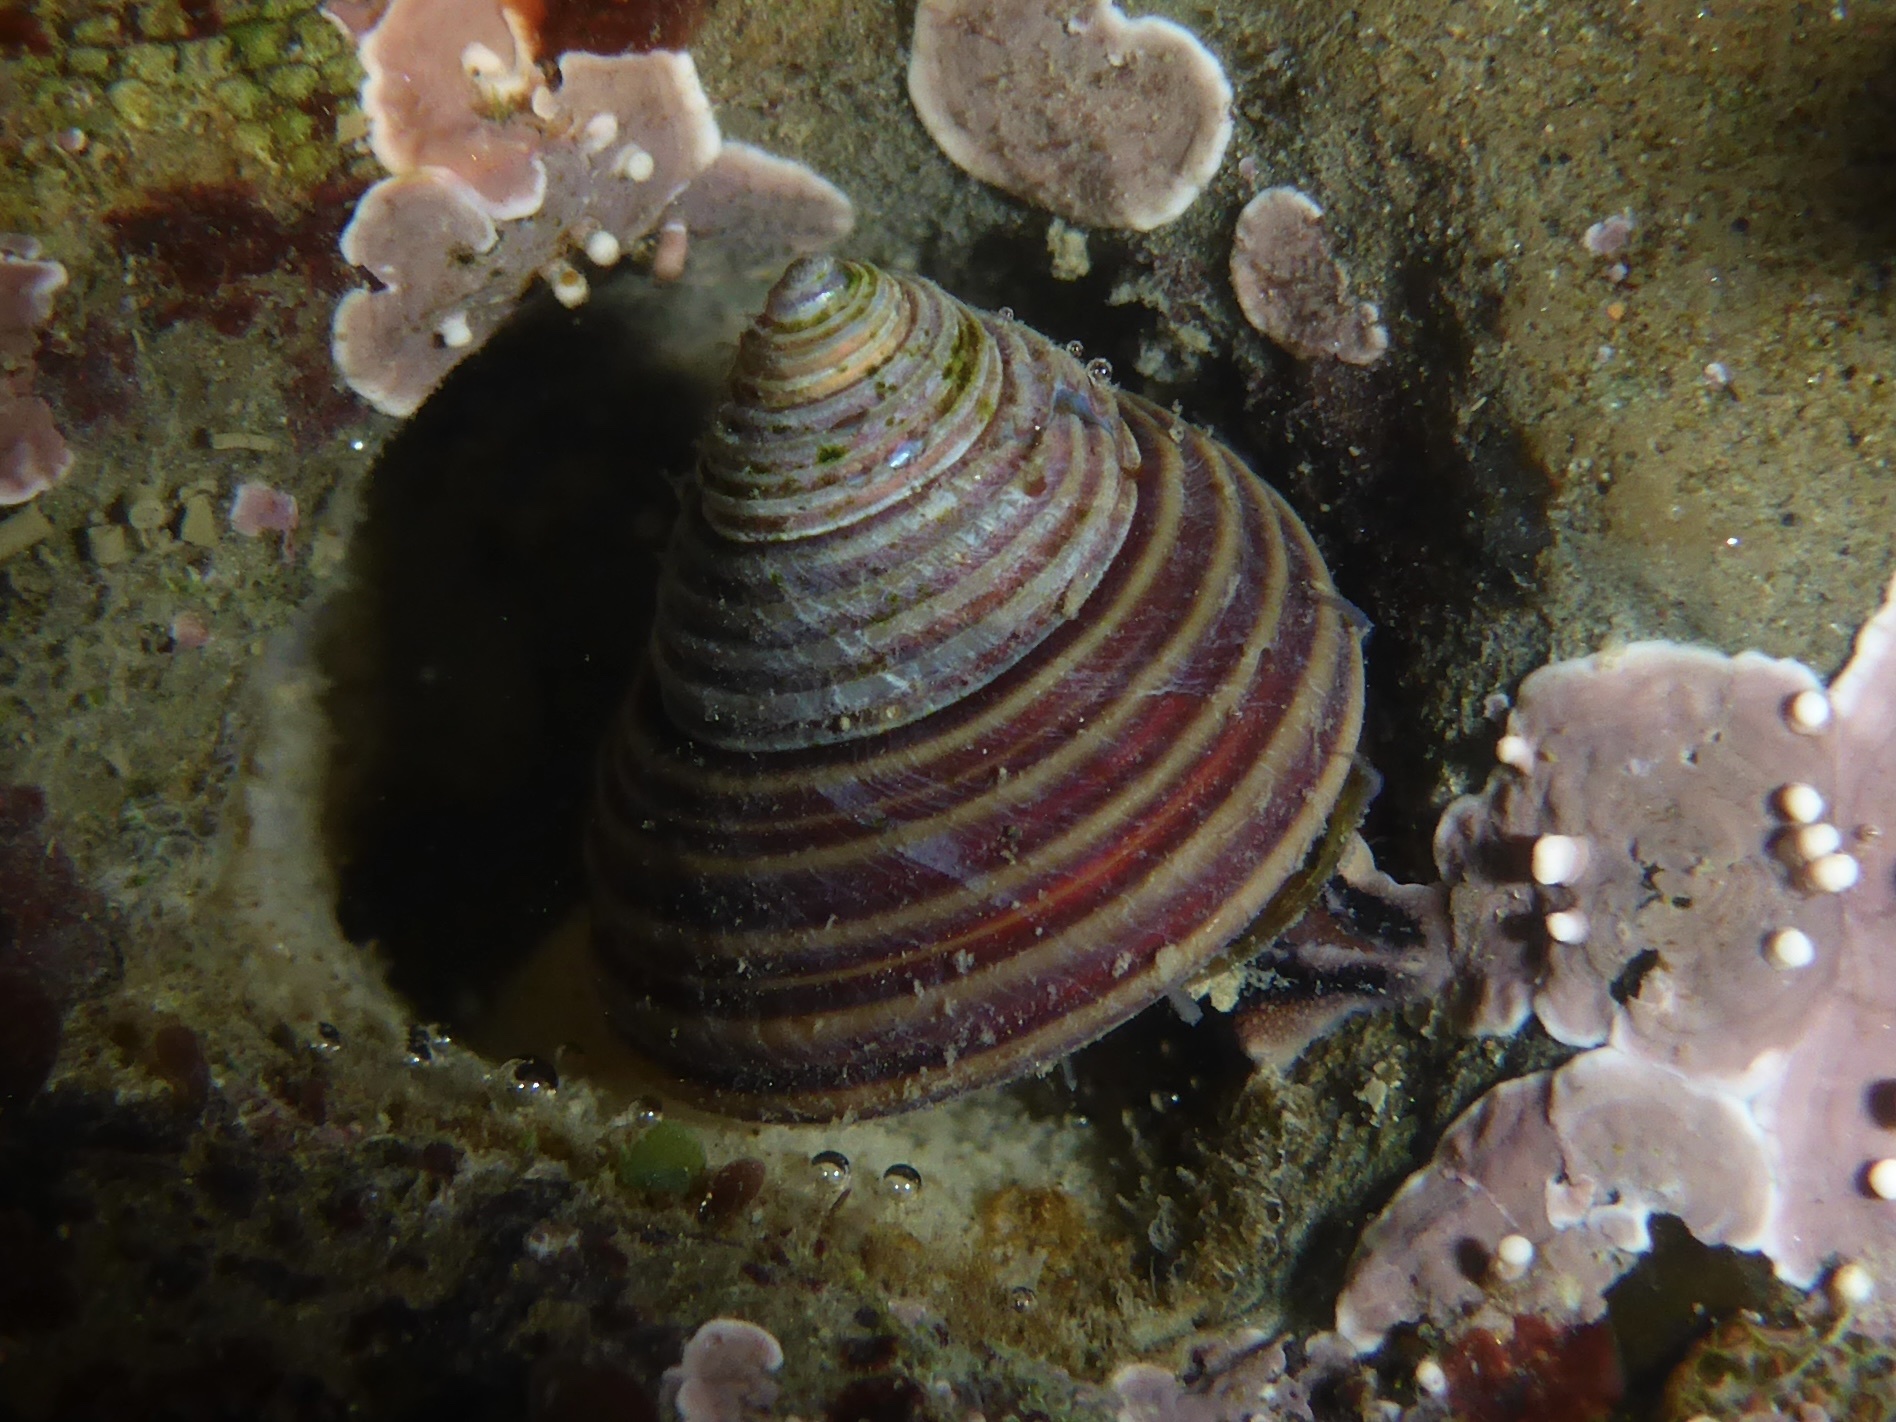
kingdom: Animalia
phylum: Mollusca
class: Gastropoda
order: Trochida
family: Calliostomatidae
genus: Calliostoma
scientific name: Calliostoma ligatum
